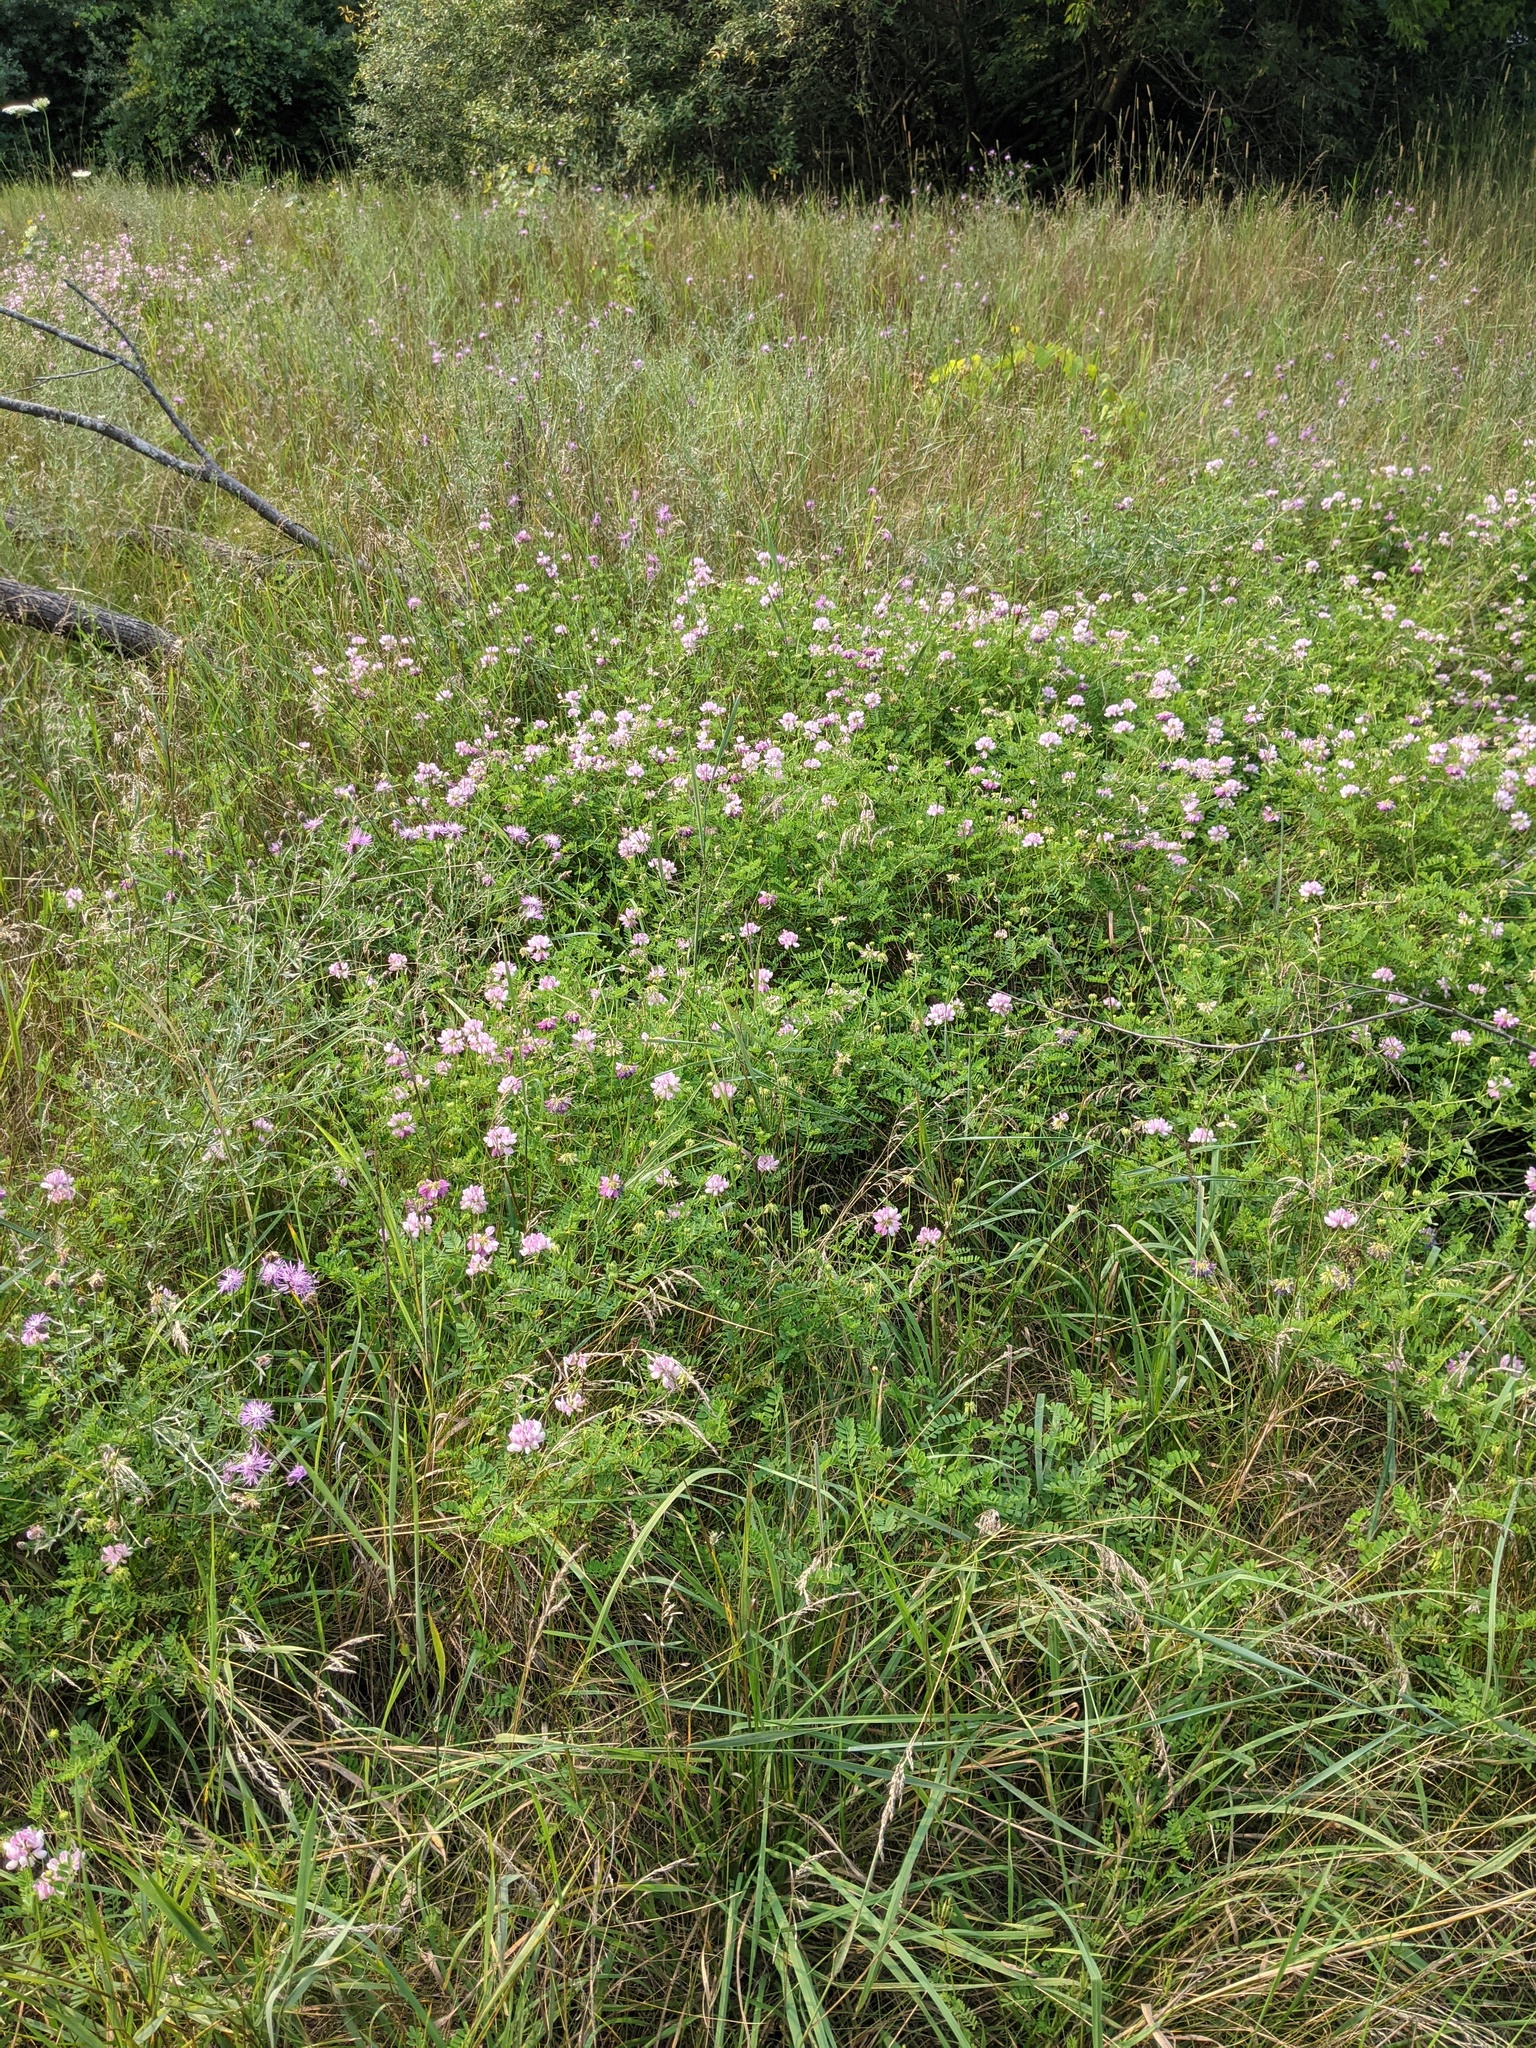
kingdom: Plantae
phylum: Tracheophyta
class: Magnoliopsida
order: Fabales
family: Fabaceae
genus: Coronilla
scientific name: Coronilla varia
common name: Crownvetch
